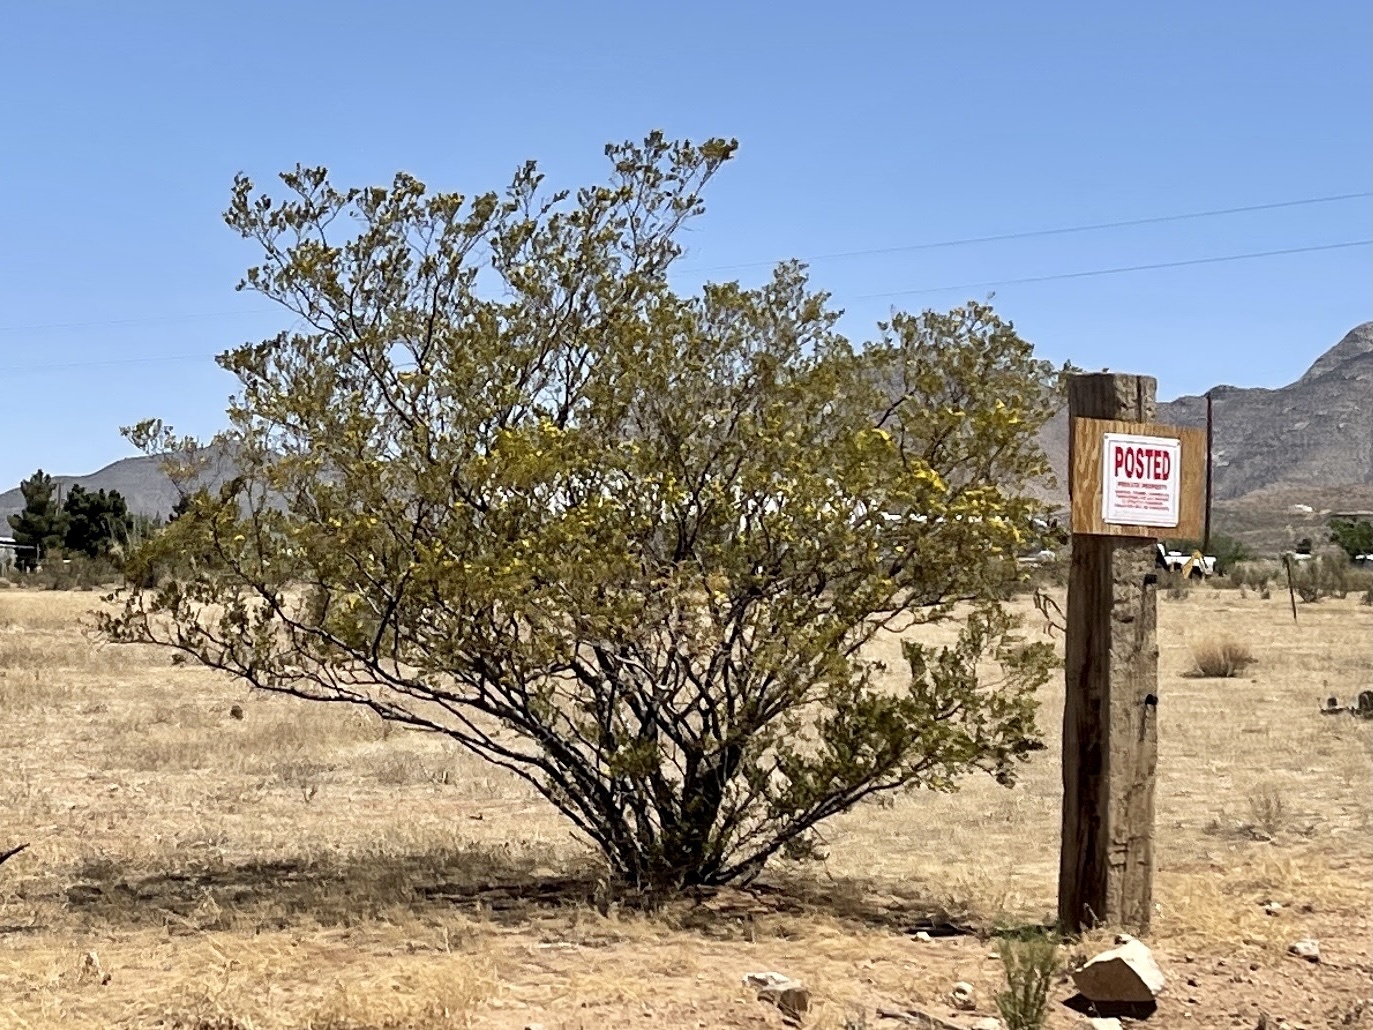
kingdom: Plantae
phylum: Tracheophyta
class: Magnoliopsida
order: Zygophyllales
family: Zygophyllaceae
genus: Larrea
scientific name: Larrea tridentata
